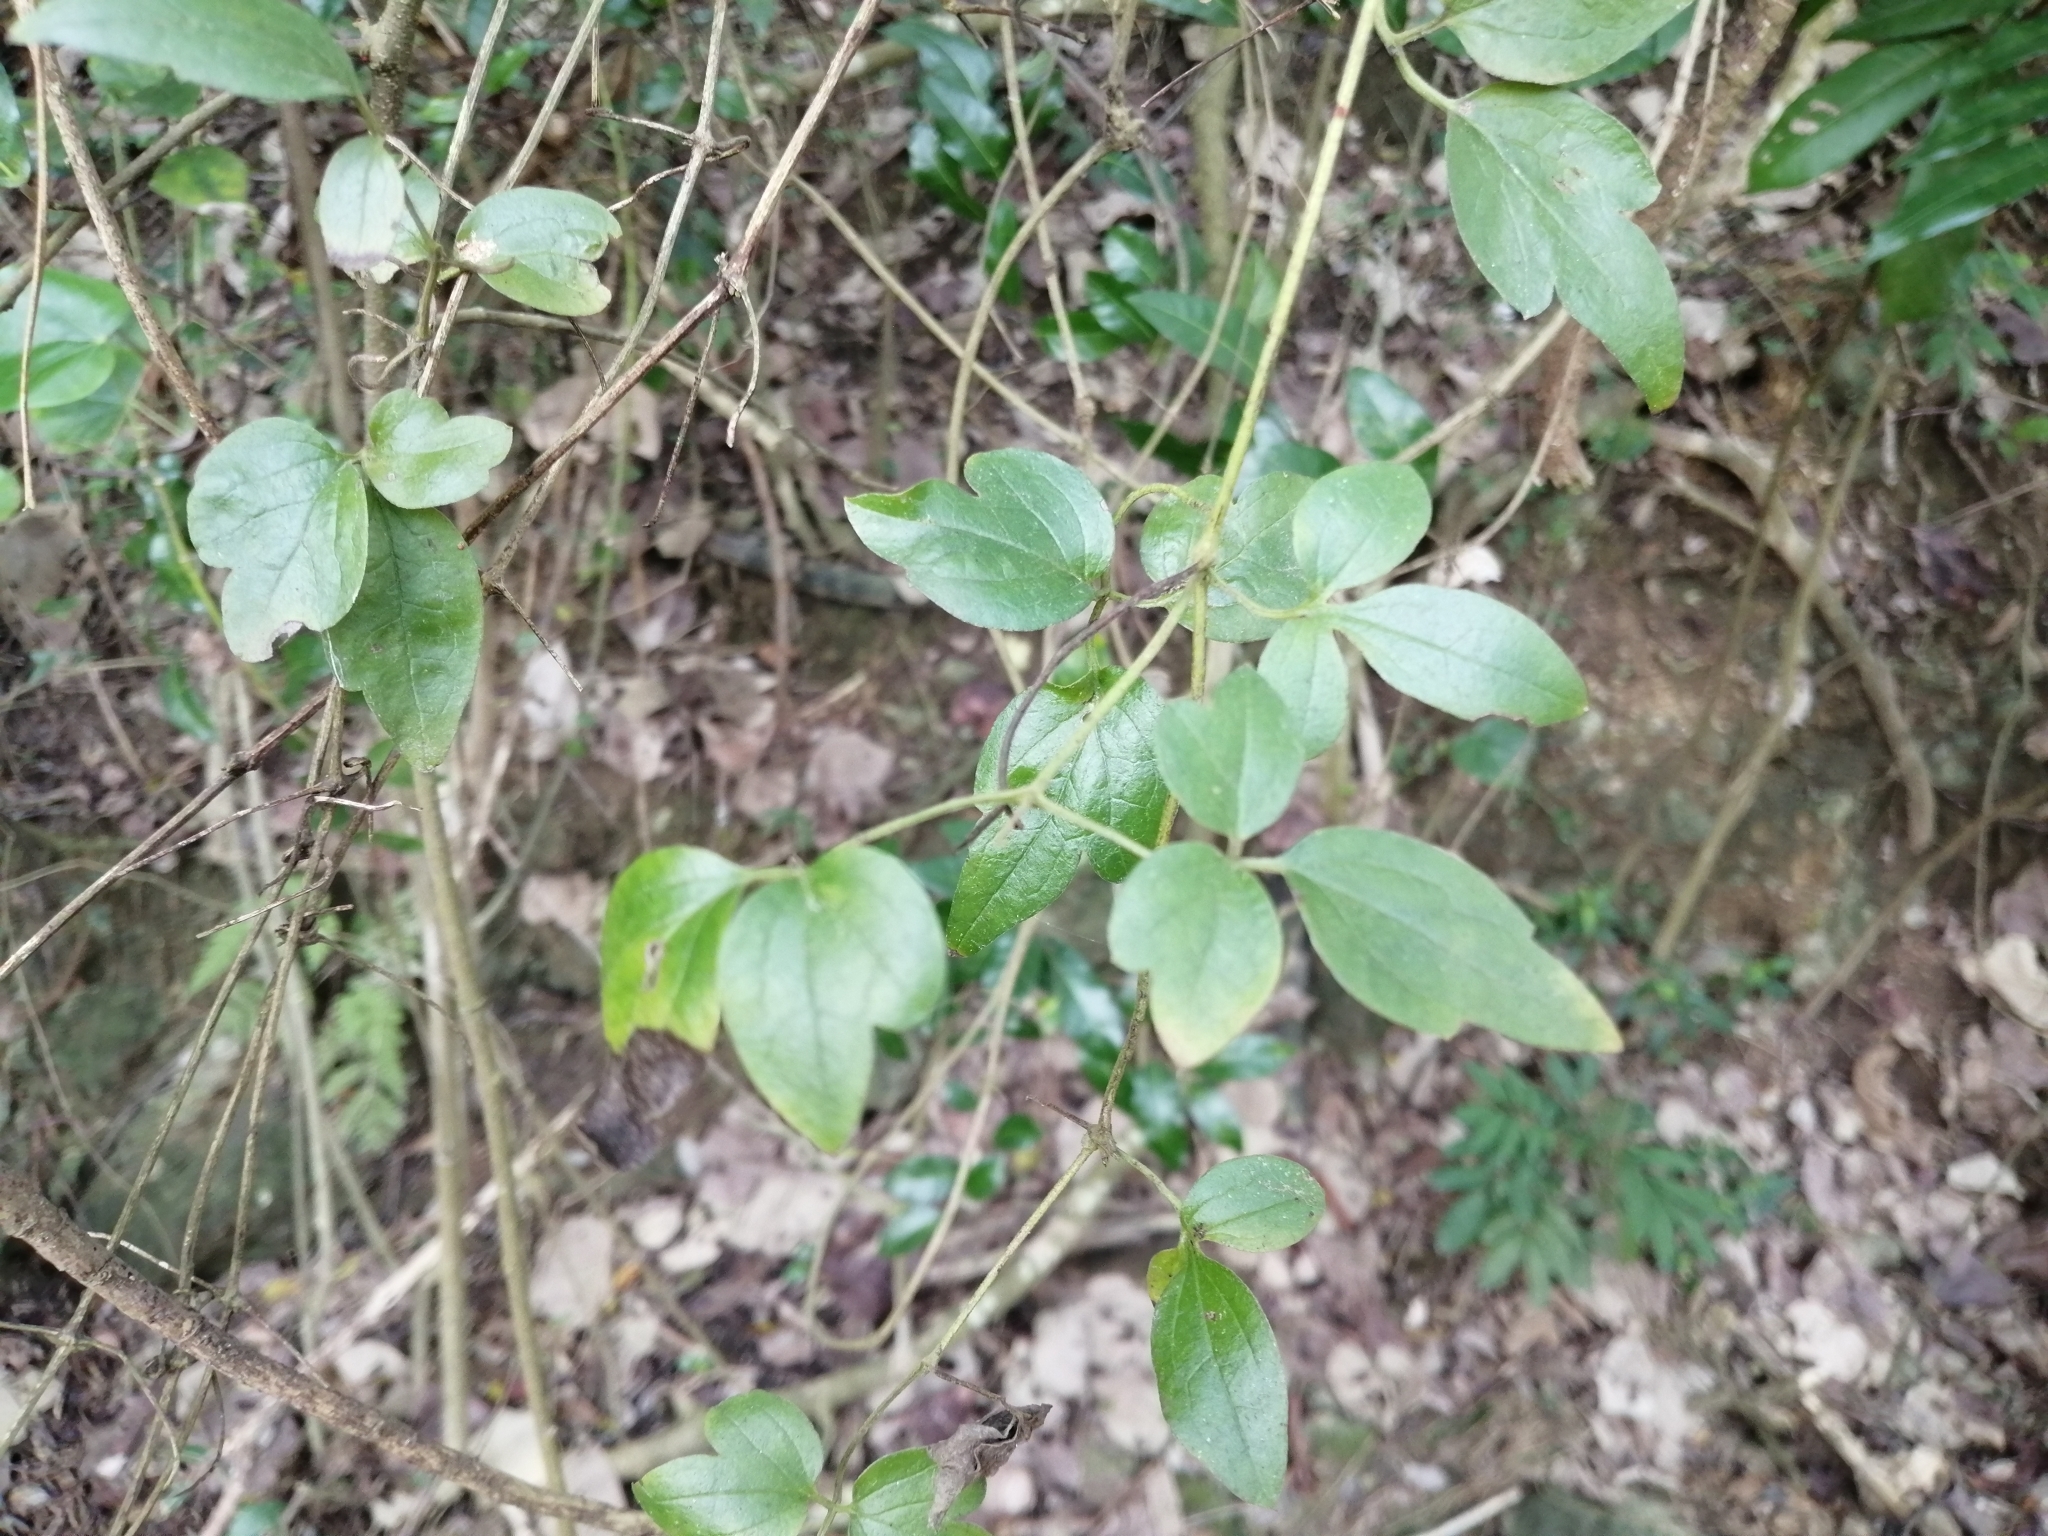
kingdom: Plantae
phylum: Tracheophyta
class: Magnoliopsida
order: Ranunculales
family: Ranunculaceae
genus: Clematis
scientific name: Clematis formosana
